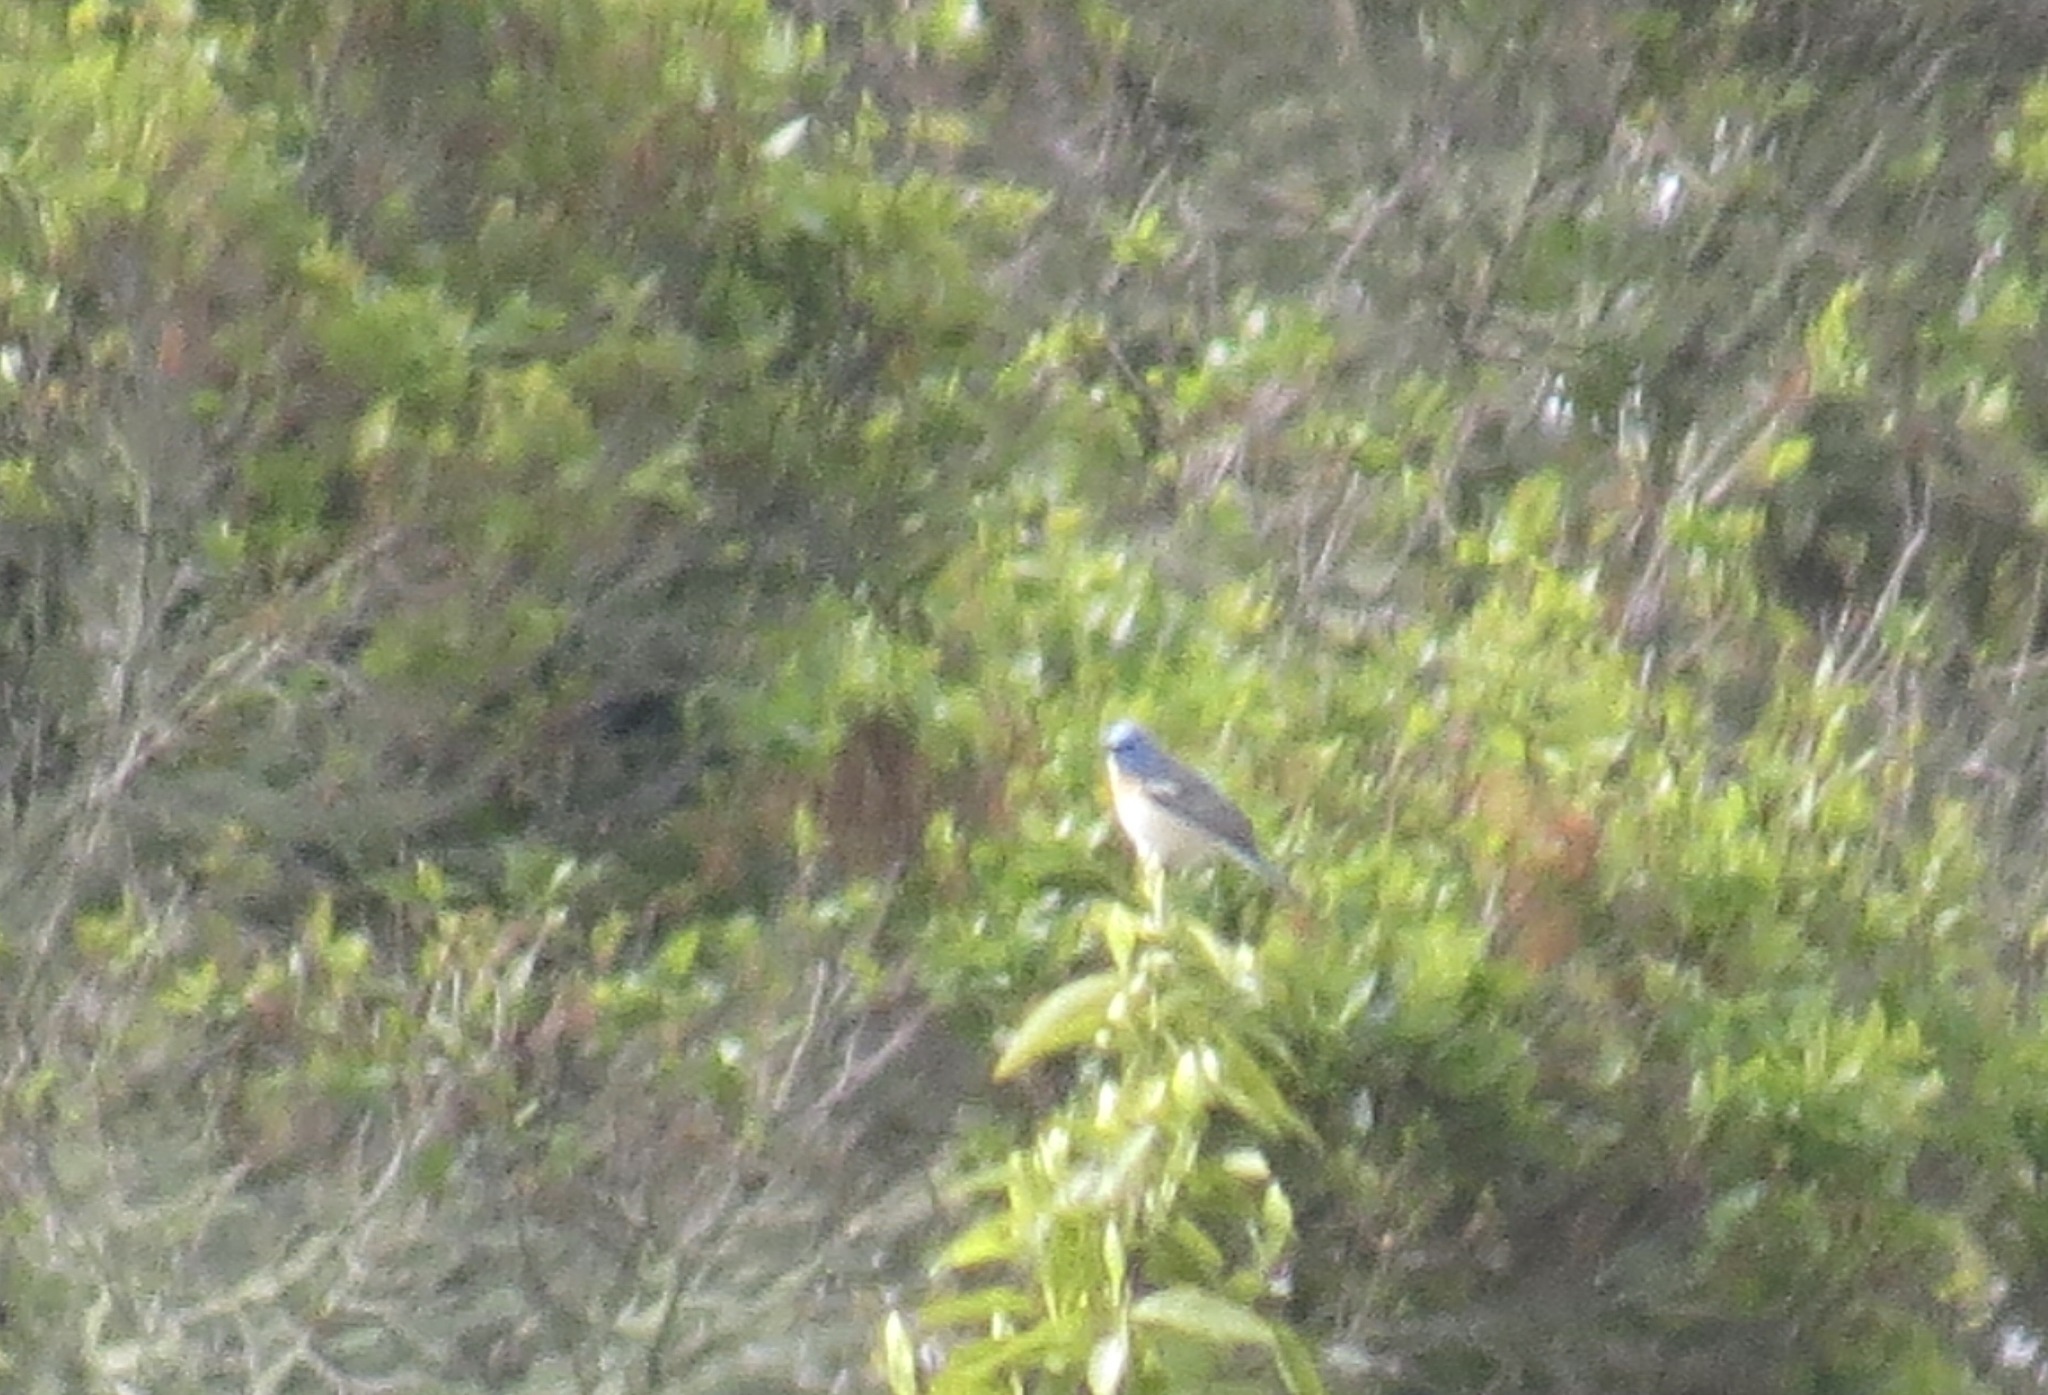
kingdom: Animalia
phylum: Chordata
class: Aves
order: Passeriformes
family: Cardinalidae
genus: Passerina
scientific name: Passerina amoena
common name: Lazuli bunting
